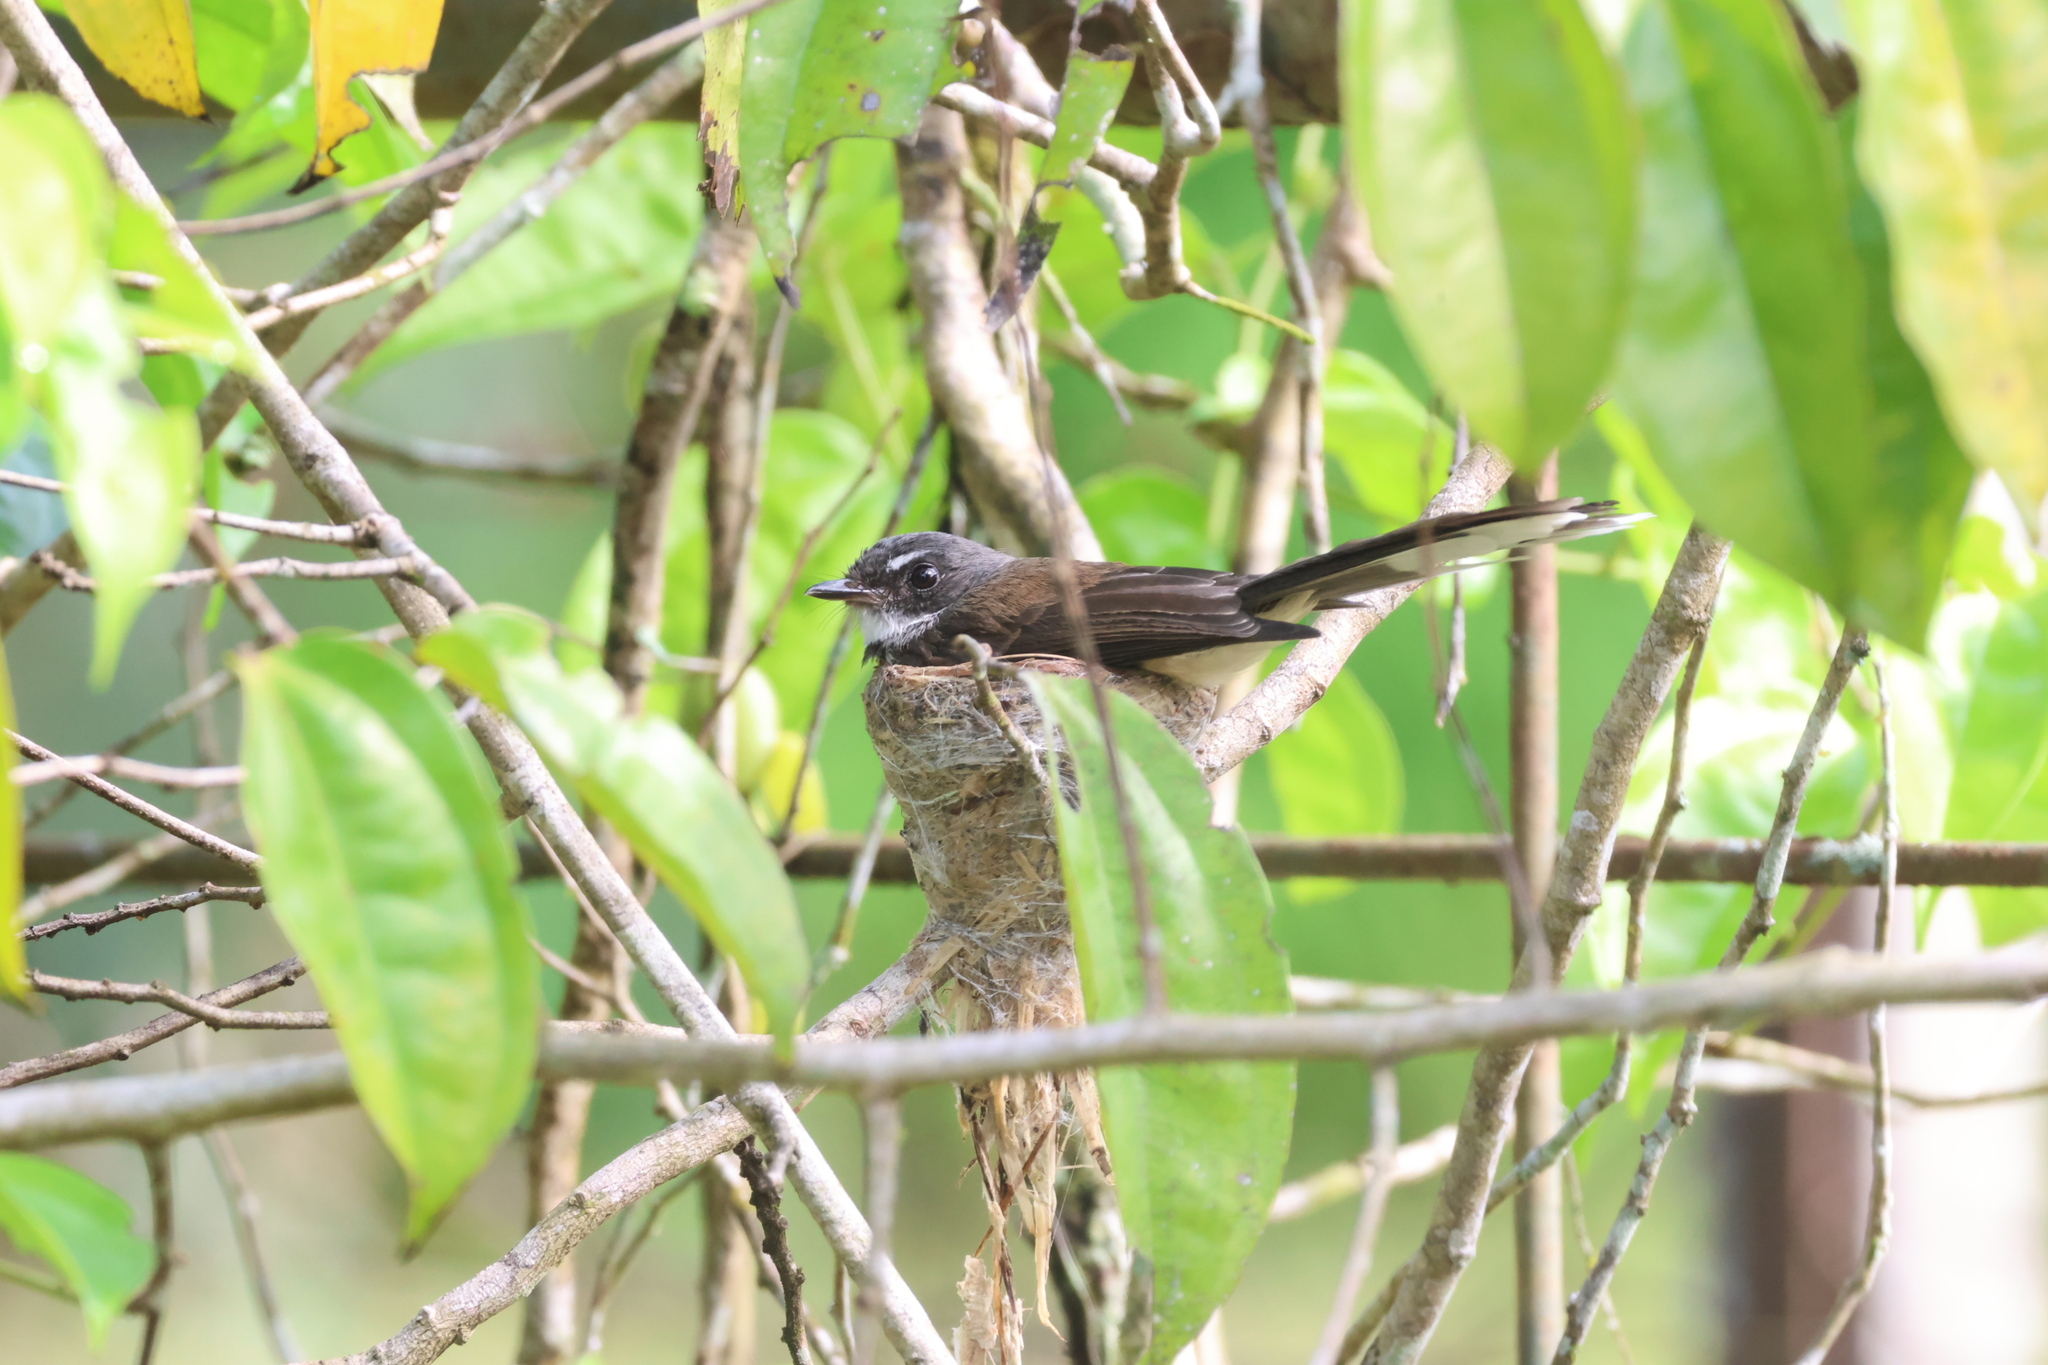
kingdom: Animalia
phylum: Chordata
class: Aves
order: Passeriformes
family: Rhipiduridae
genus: Rhipidura
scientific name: Rhipidura javanica
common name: Pied fantail
